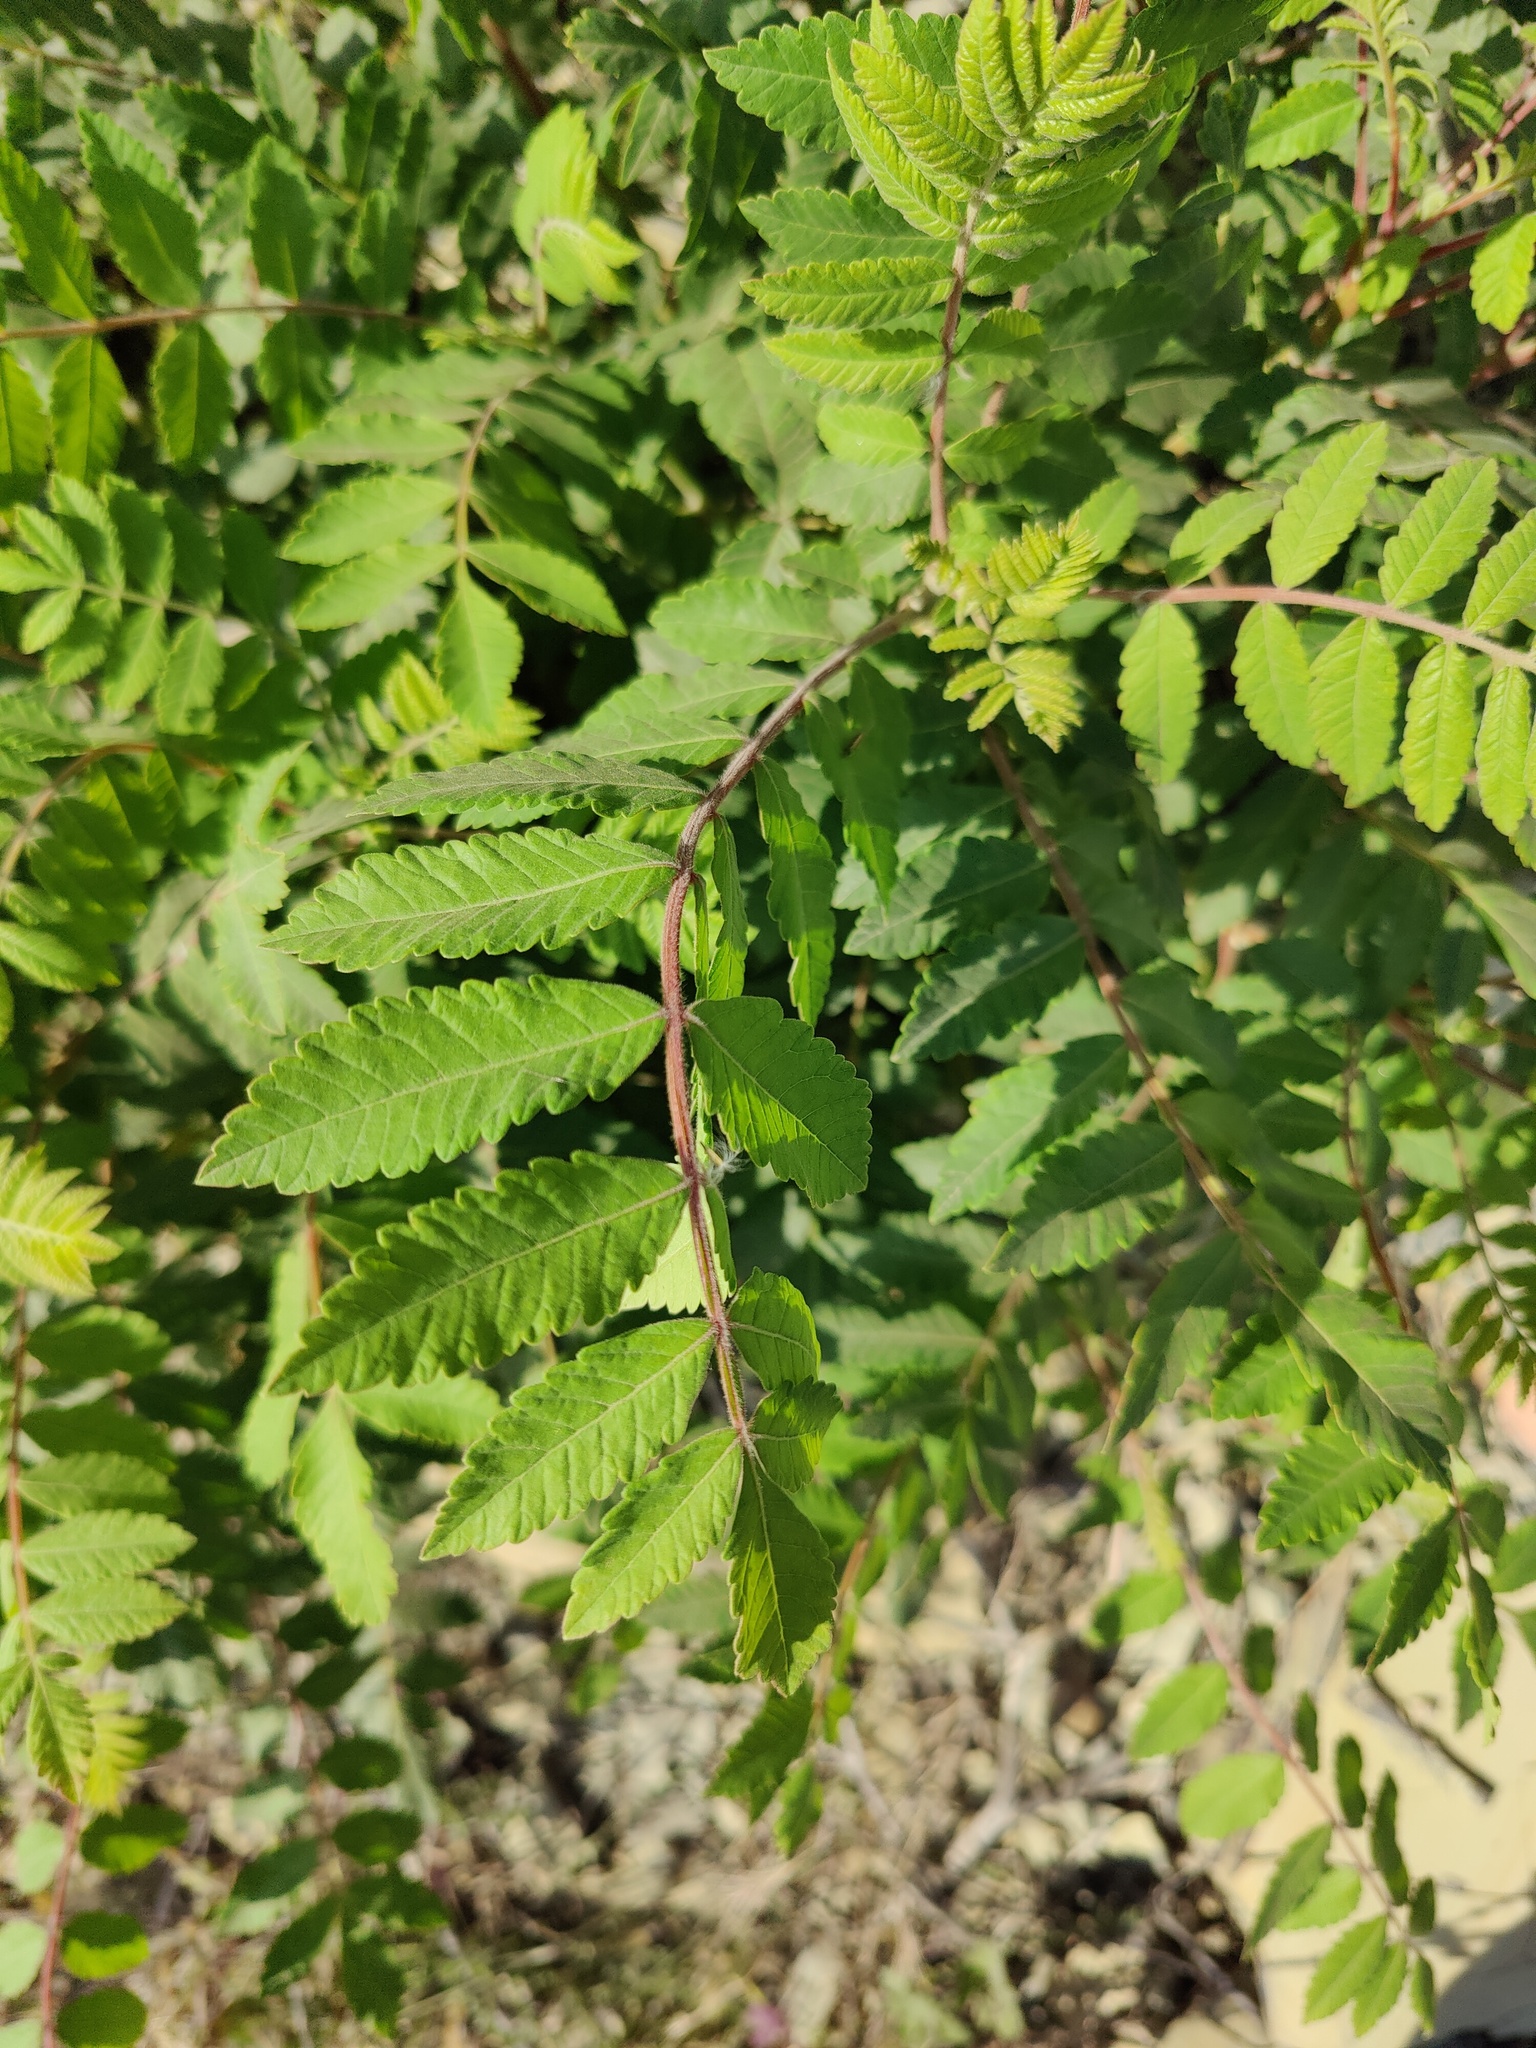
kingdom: Plantae
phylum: Tracheophyta
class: Magnoliopsida
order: Sapindales
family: Anacardiaceae
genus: Rhus
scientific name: Rhus coriaria
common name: Tanner's sumach
